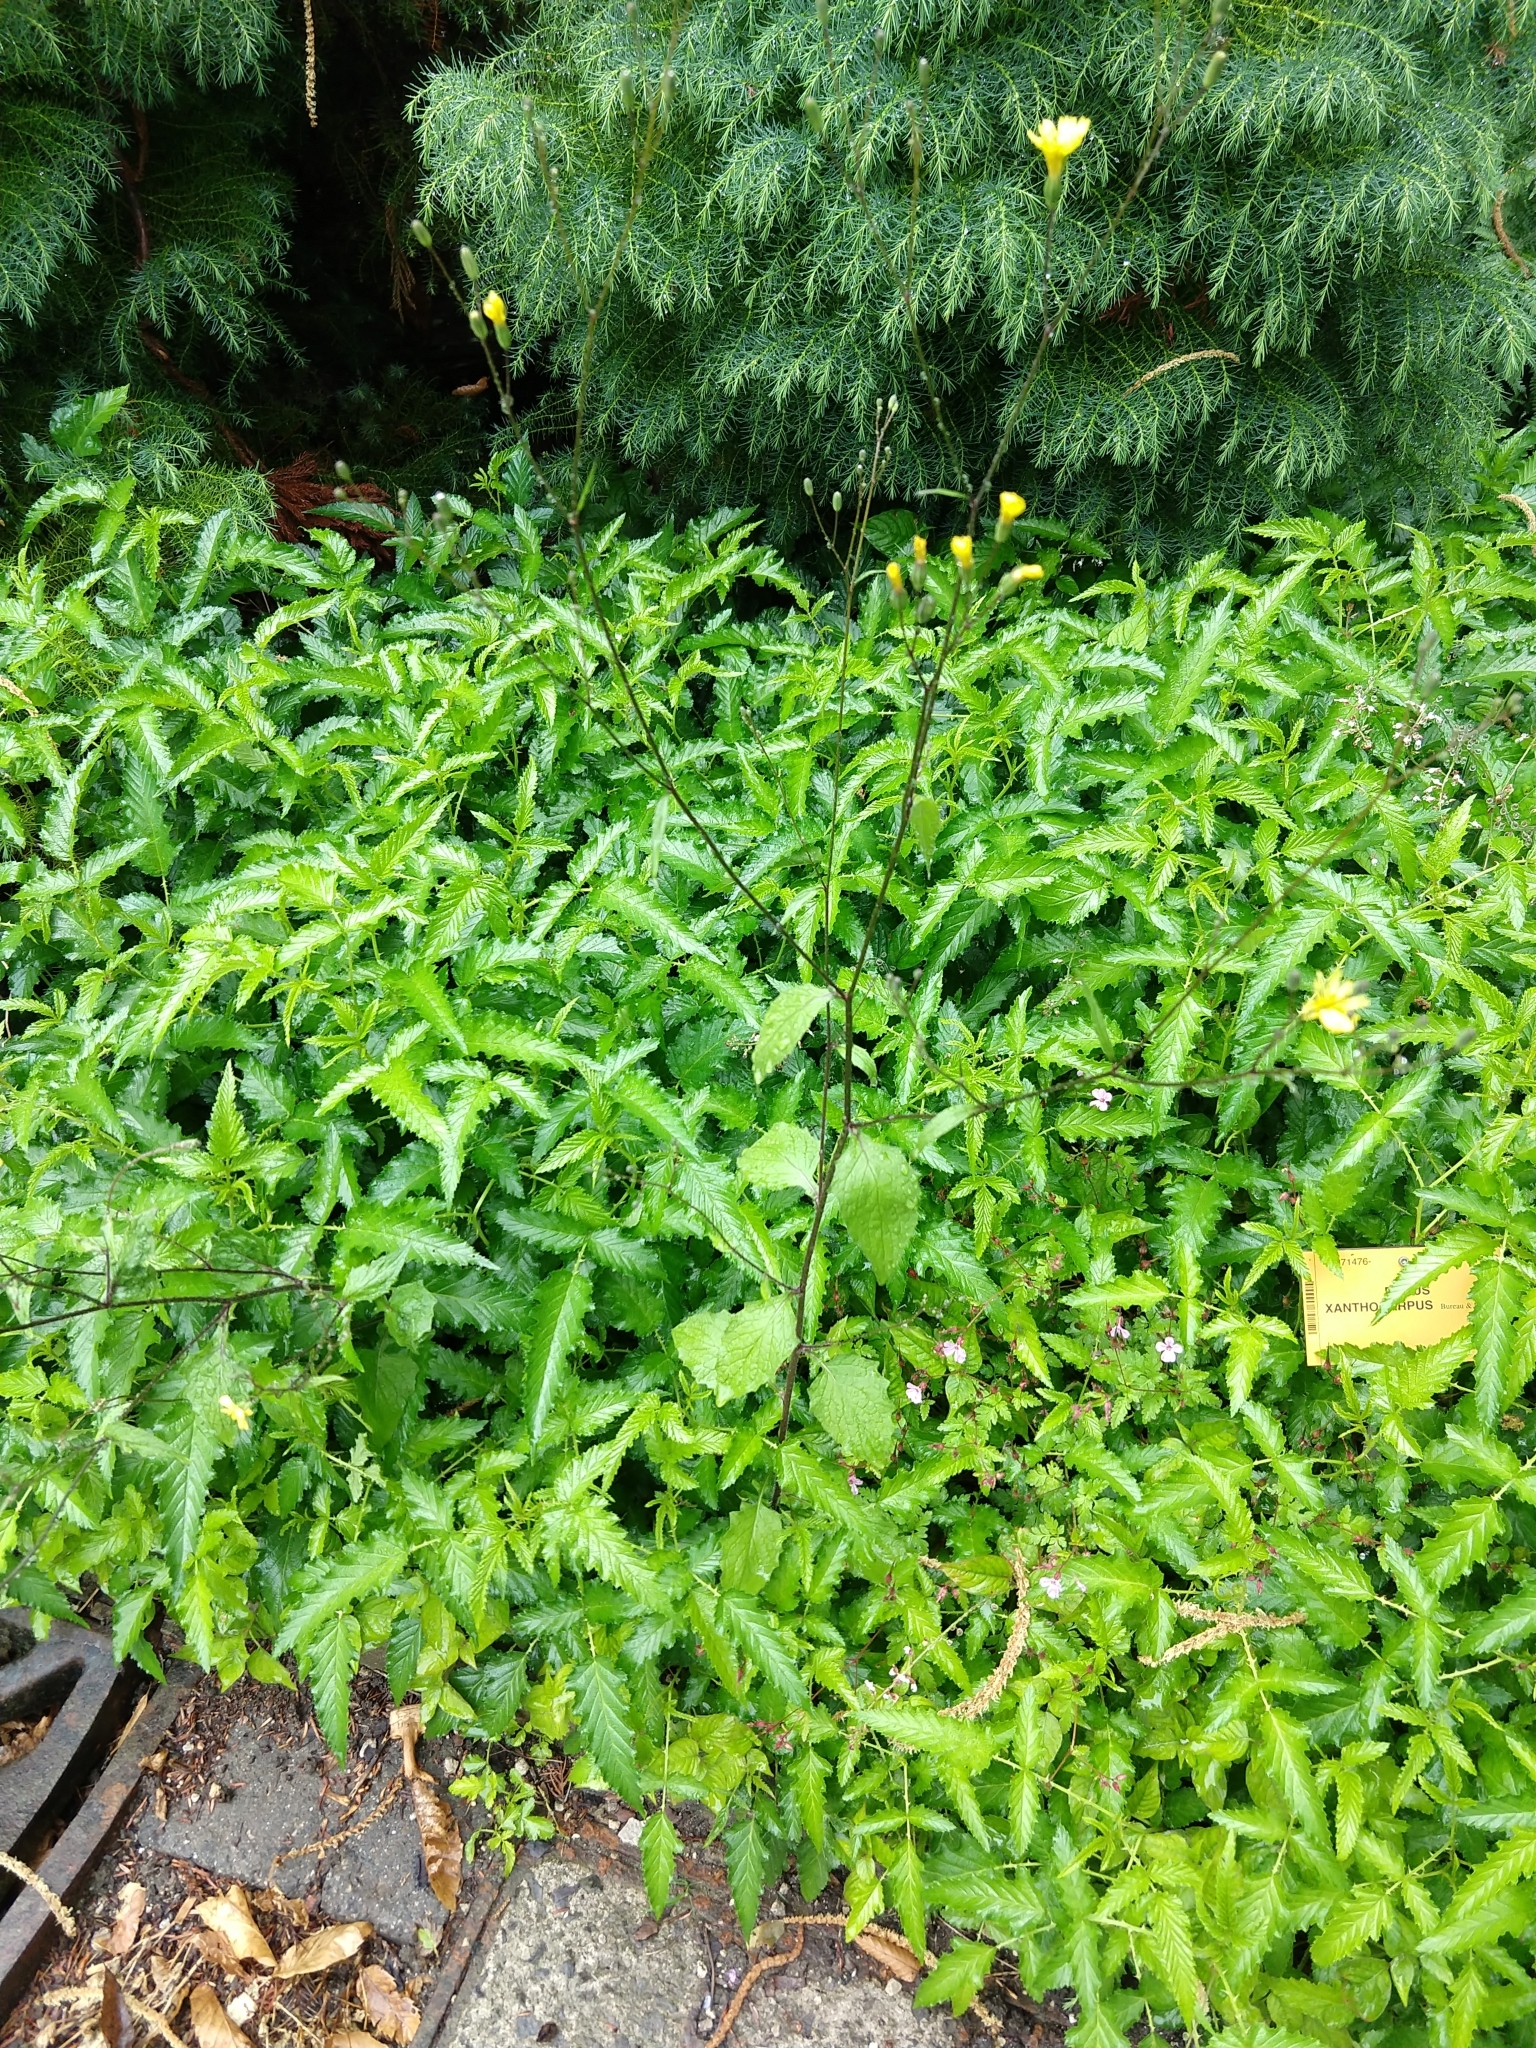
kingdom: Plantae
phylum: Tracheophyta
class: Magnoliopsida
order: Asterales
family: Asteraceae
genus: Lapsana
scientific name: Lapsana communis
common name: Nipplewort
